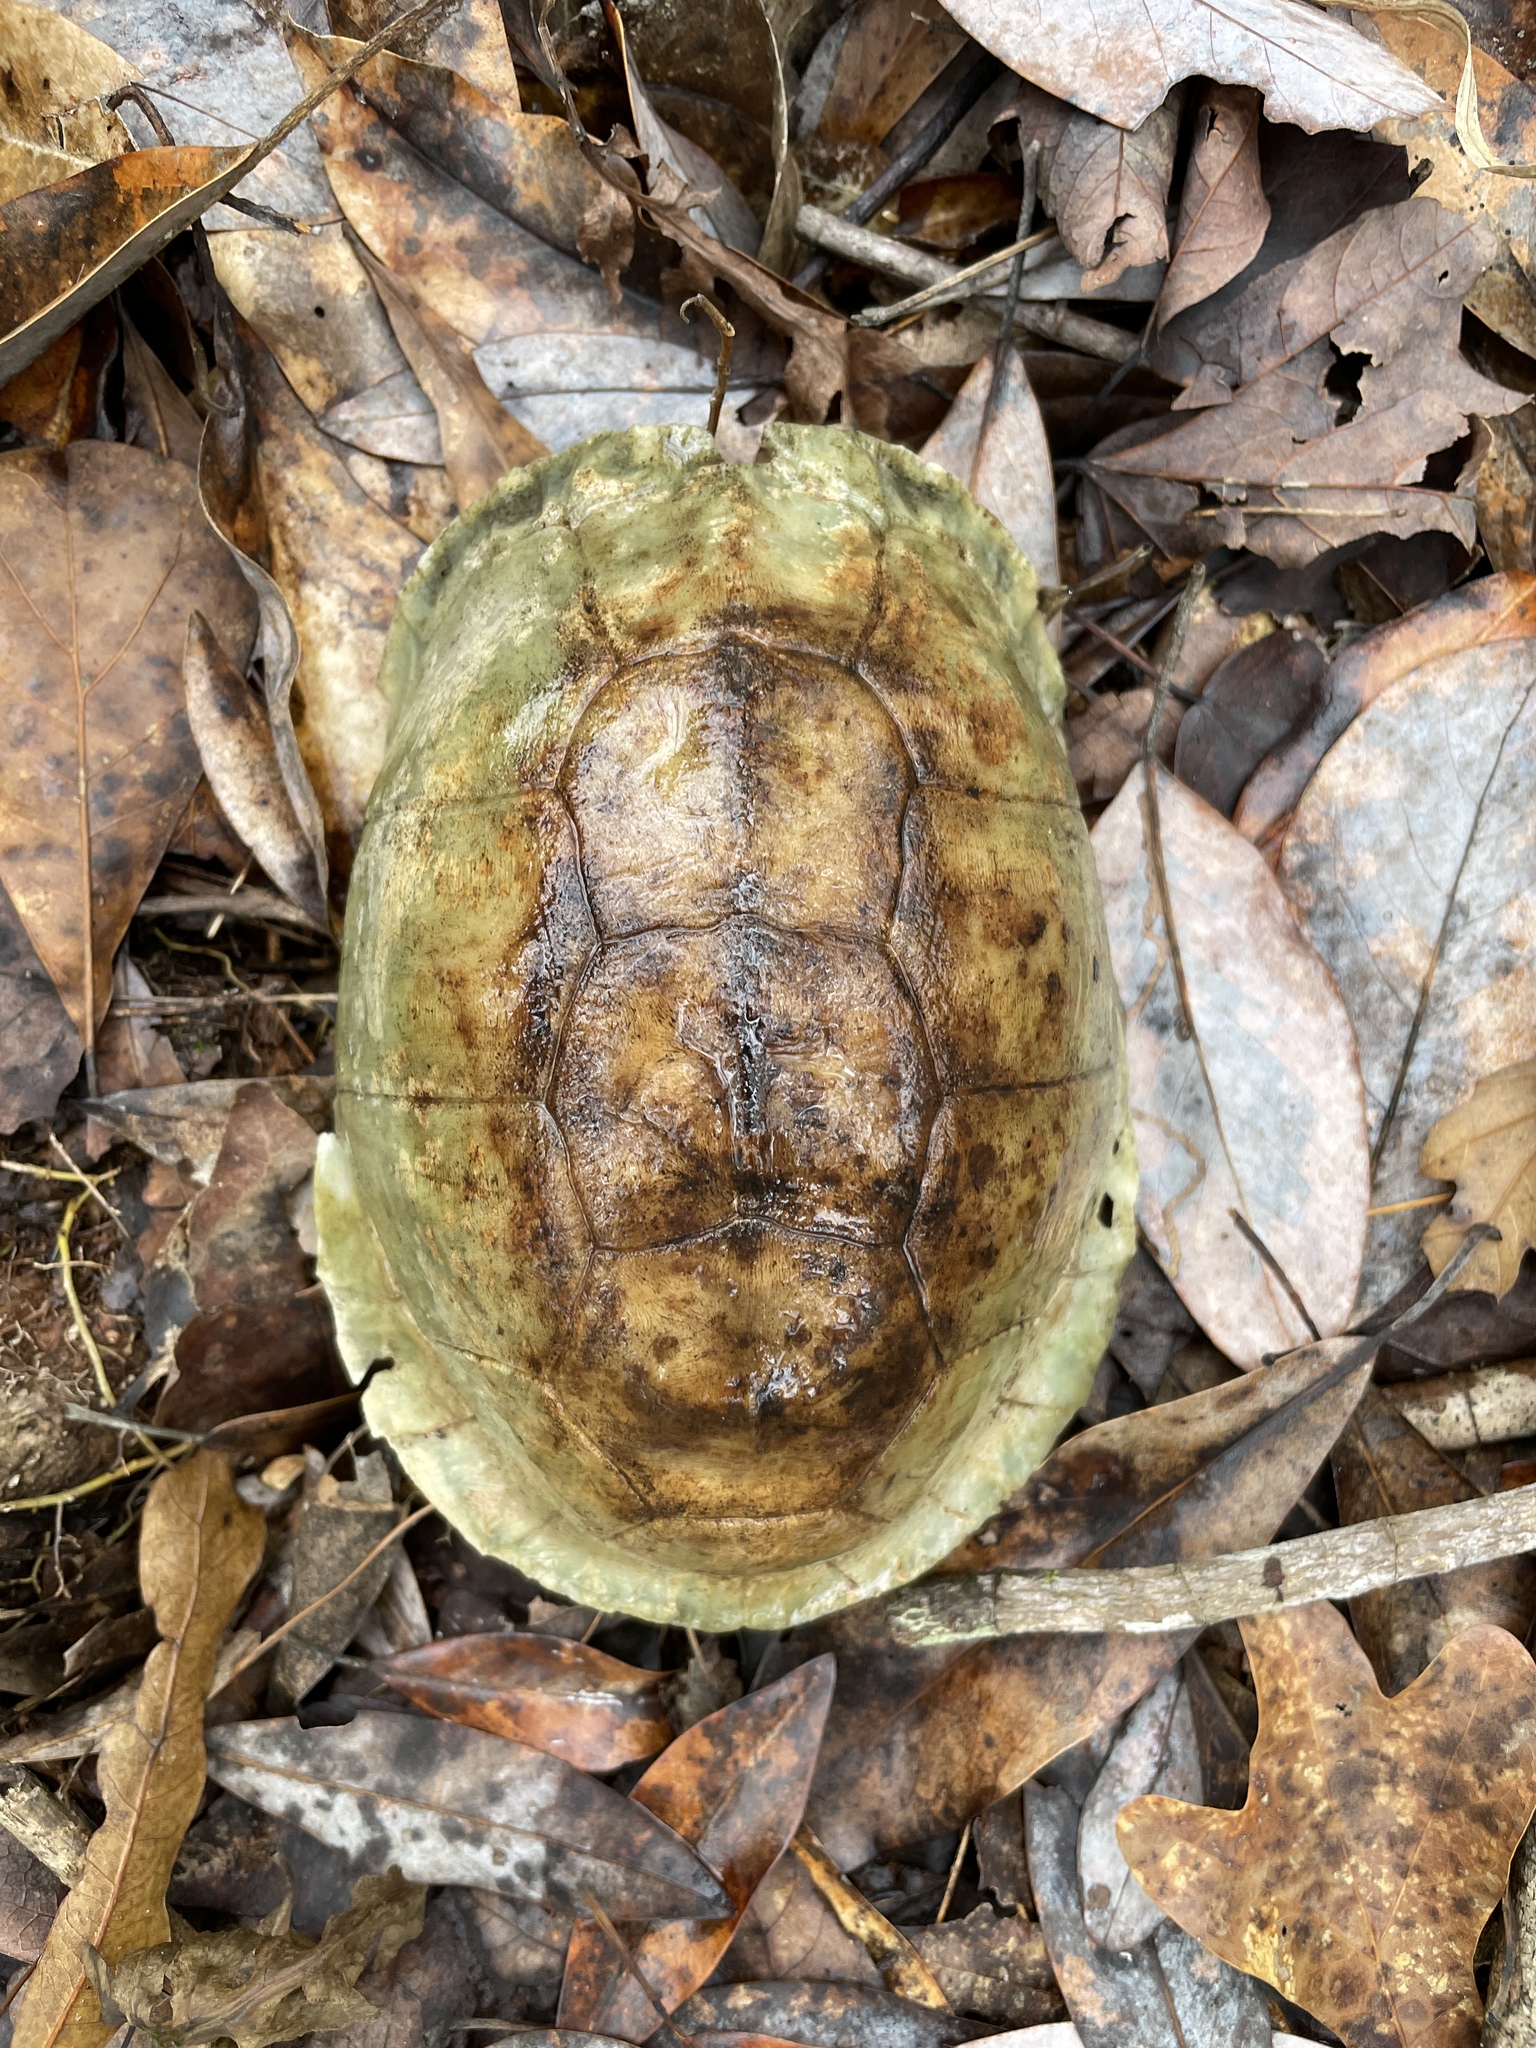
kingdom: Animalia
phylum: Chordata
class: Testudines
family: Emydidae
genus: Terrapene
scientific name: Terrapene carolina
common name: Common box turtle
